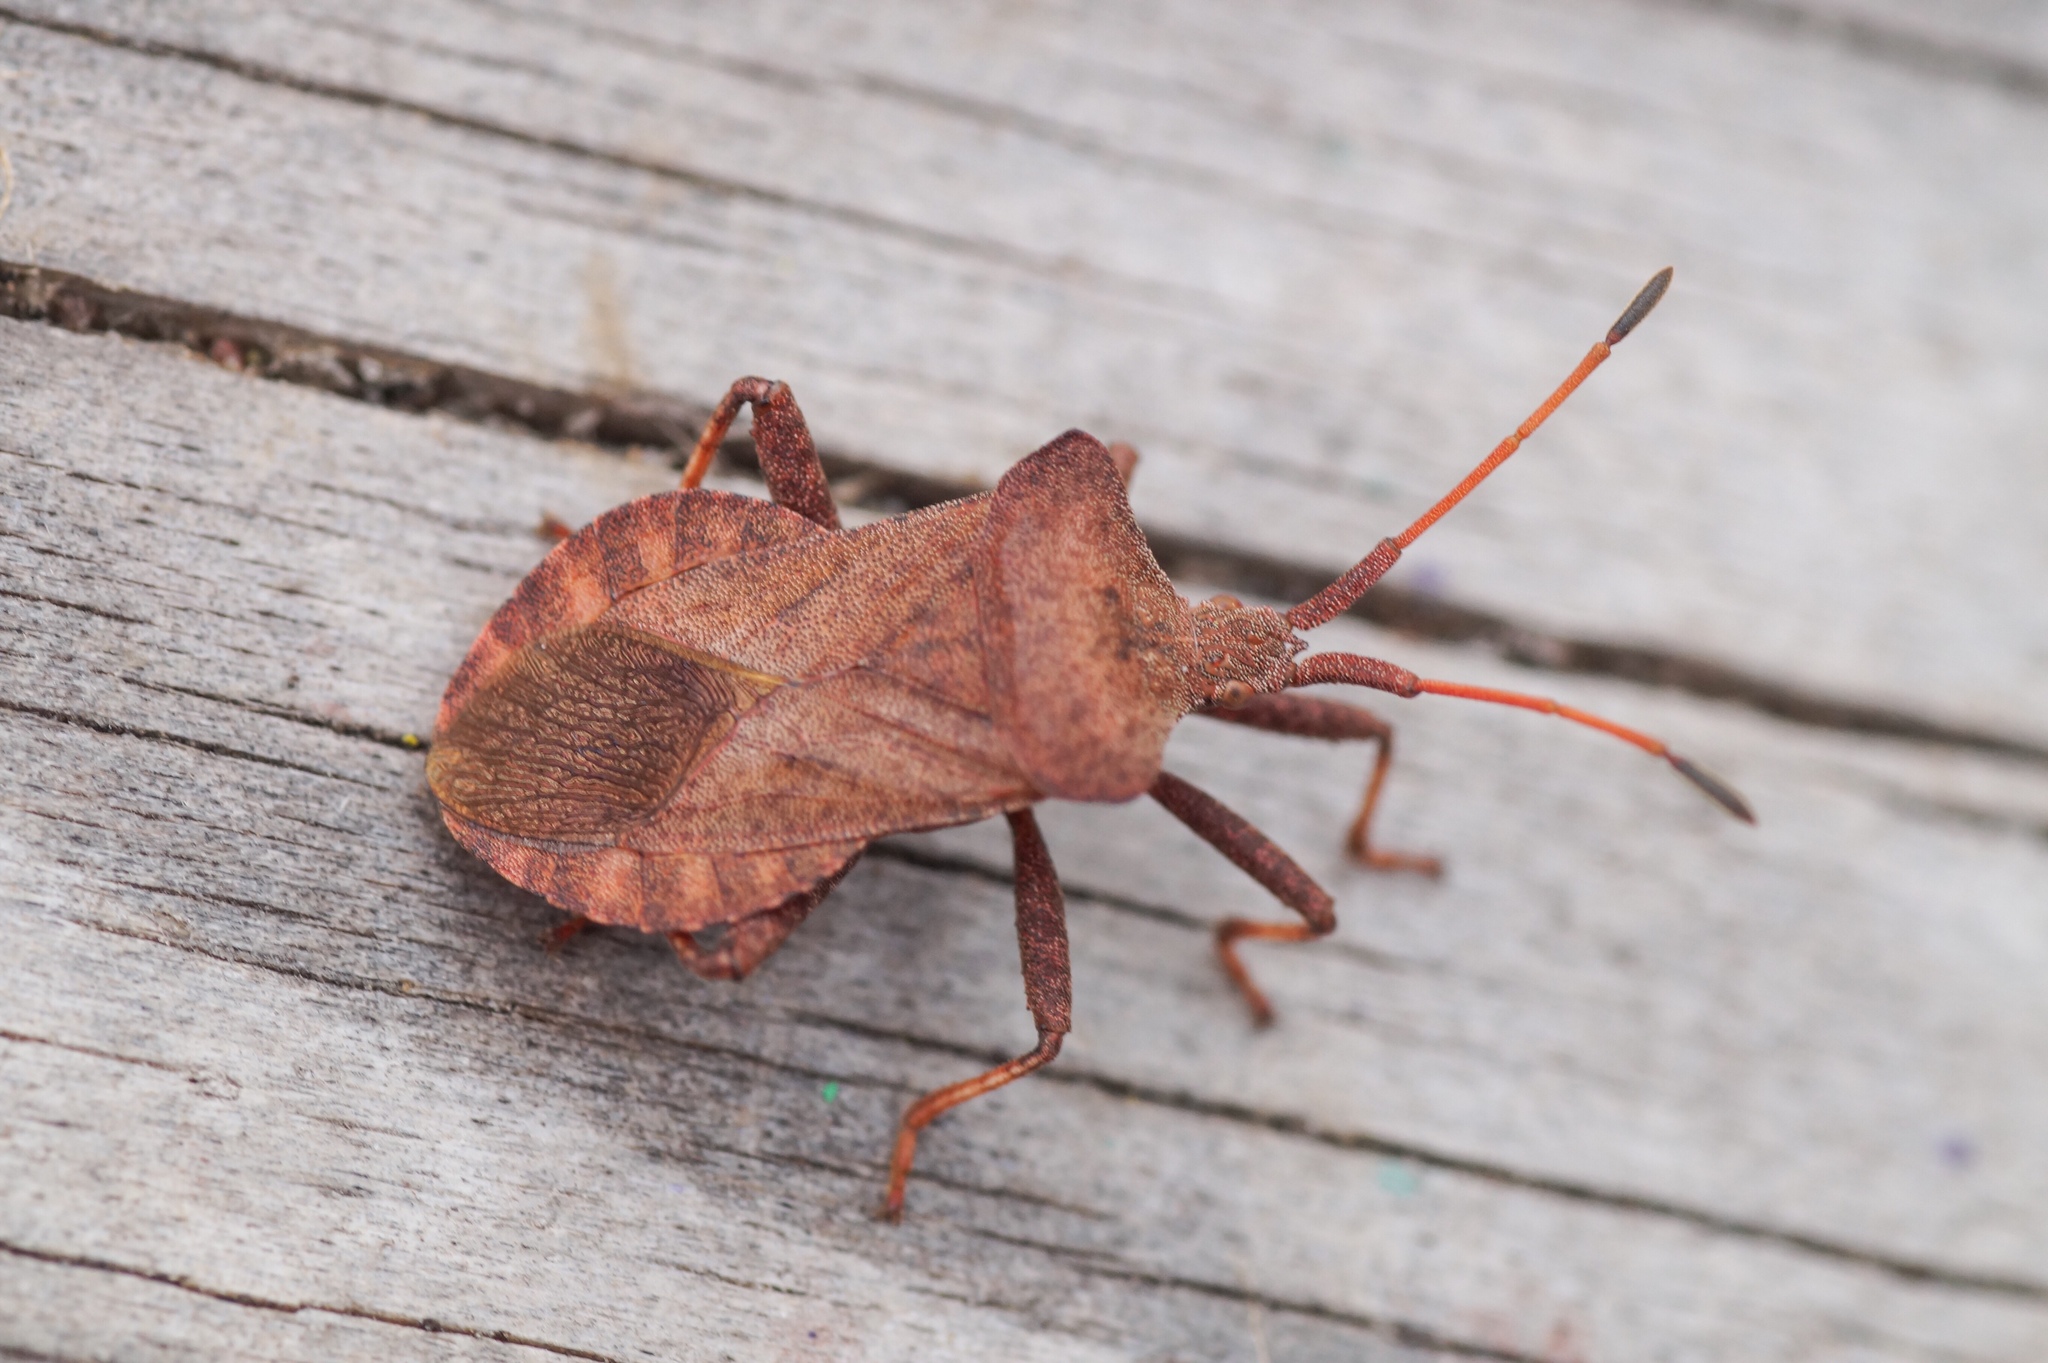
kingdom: Animalia
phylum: Arthropoda
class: Insecta
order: Hemiptera
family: Coreidae
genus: Coreus
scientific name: Coreus marginatus
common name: Dock bug
